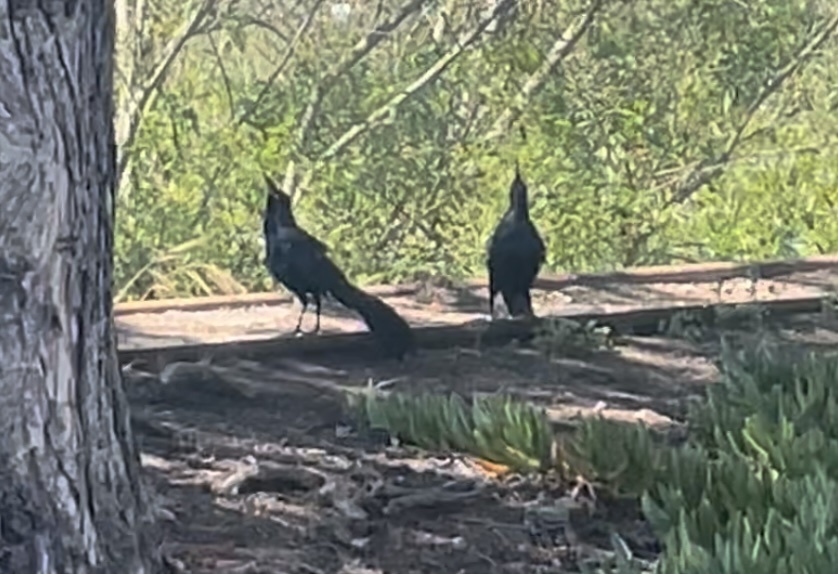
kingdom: Animalia
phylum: Chordata
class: Aves
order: Passeriformes
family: Icteridae
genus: Quiscalus
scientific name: Quiscalus mexicanus
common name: Great-tailed grackle
